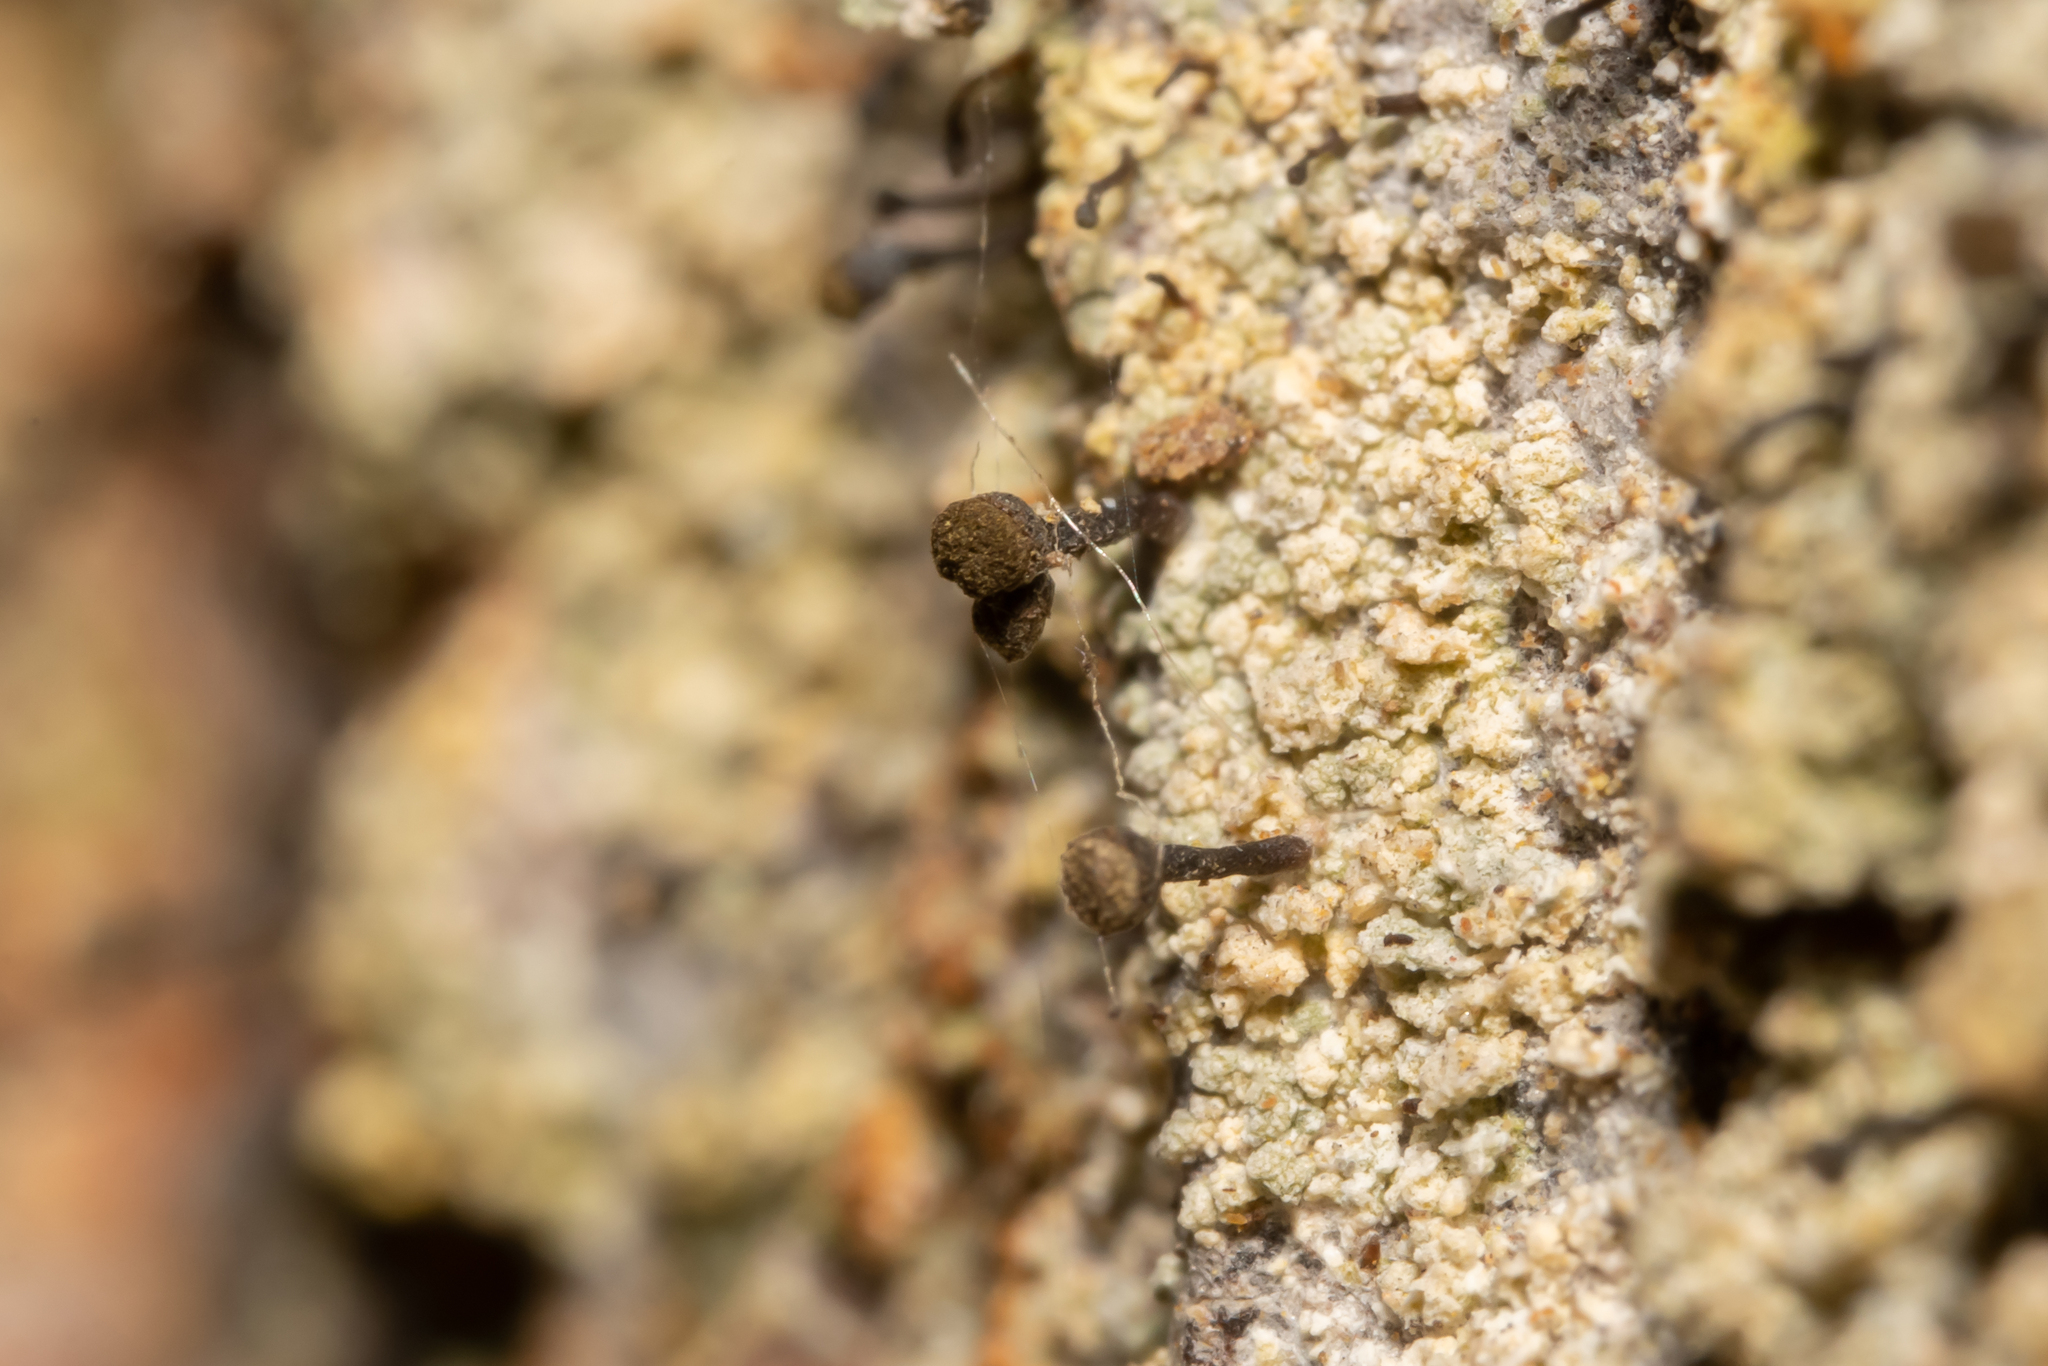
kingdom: Fungi
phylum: Ascomycota
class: Coniocybomycetes
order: Coniocybales
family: Coniocybaceae
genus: Chaenotheca
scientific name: Chaenotheca ferruginea
